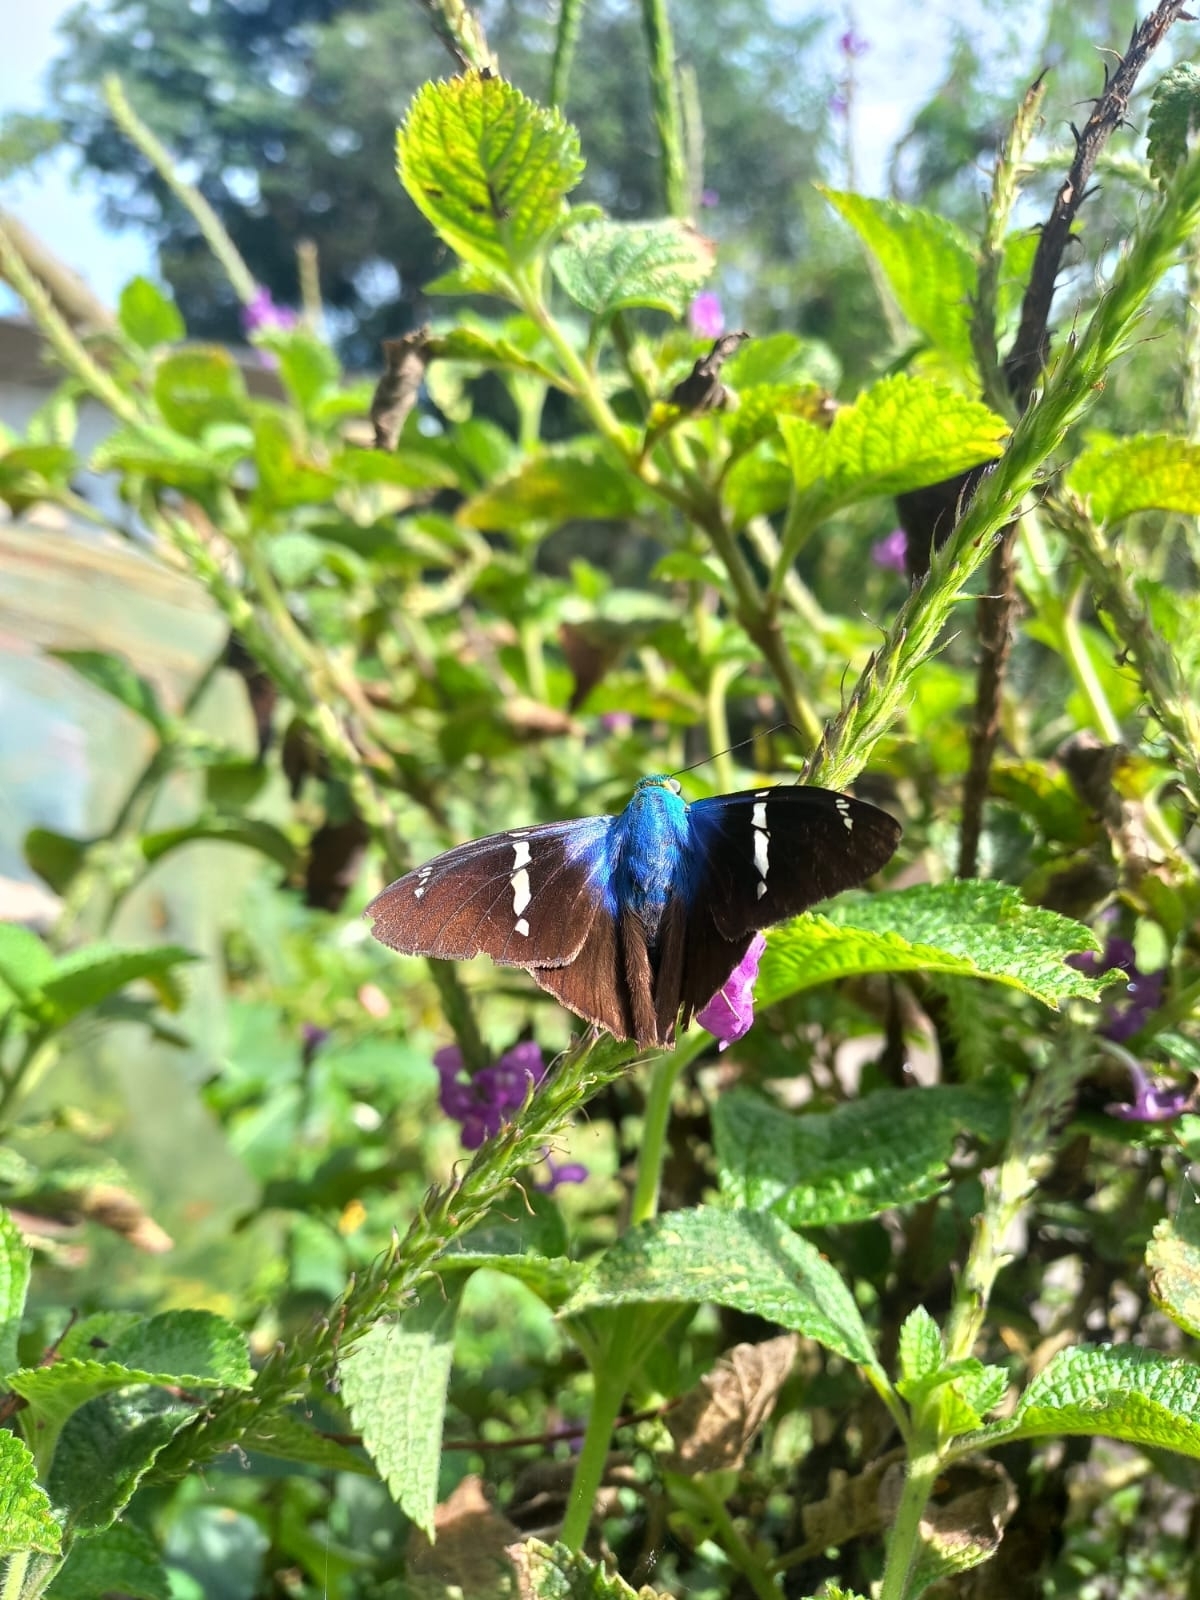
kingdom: Animalia
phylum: Arthropoda
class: Insecta
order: Lepidoptera
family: Hesperiidae
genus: Astraptes
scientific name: Astraptes fulgerator
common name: Two-barred flasher
